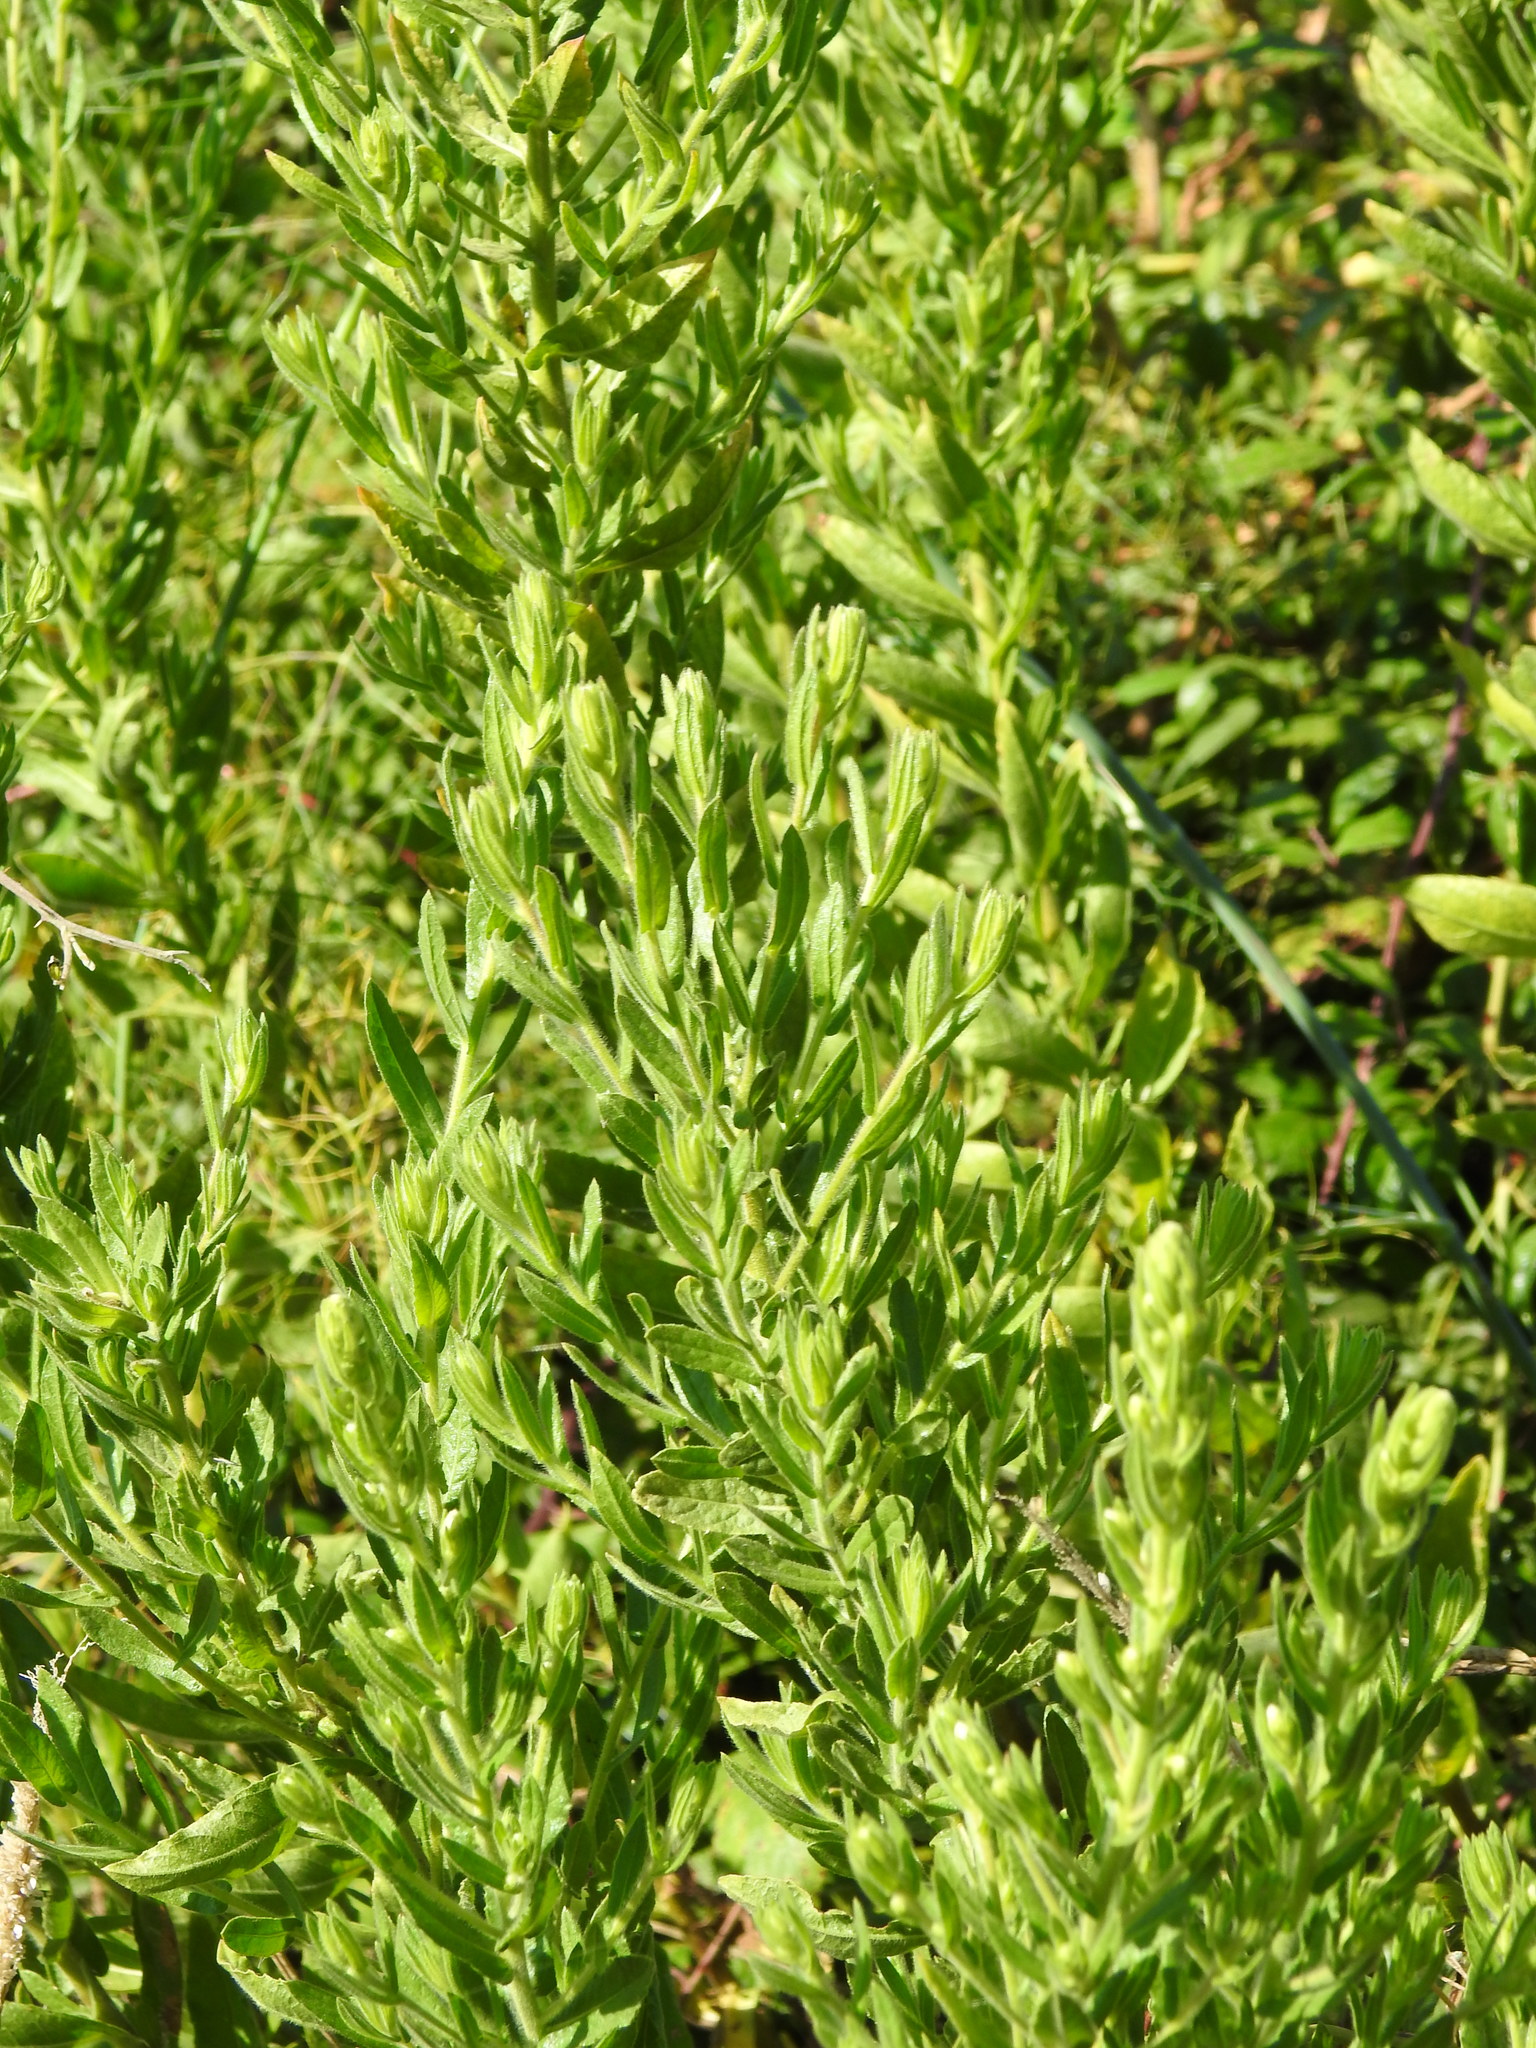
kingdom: Plantae
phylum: Tracheophyta
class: Magnoliopsida
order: Asterales
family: Asteraceae
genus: Dittrichia
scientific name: Dittrichia viscosa
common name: Woody fleabane
